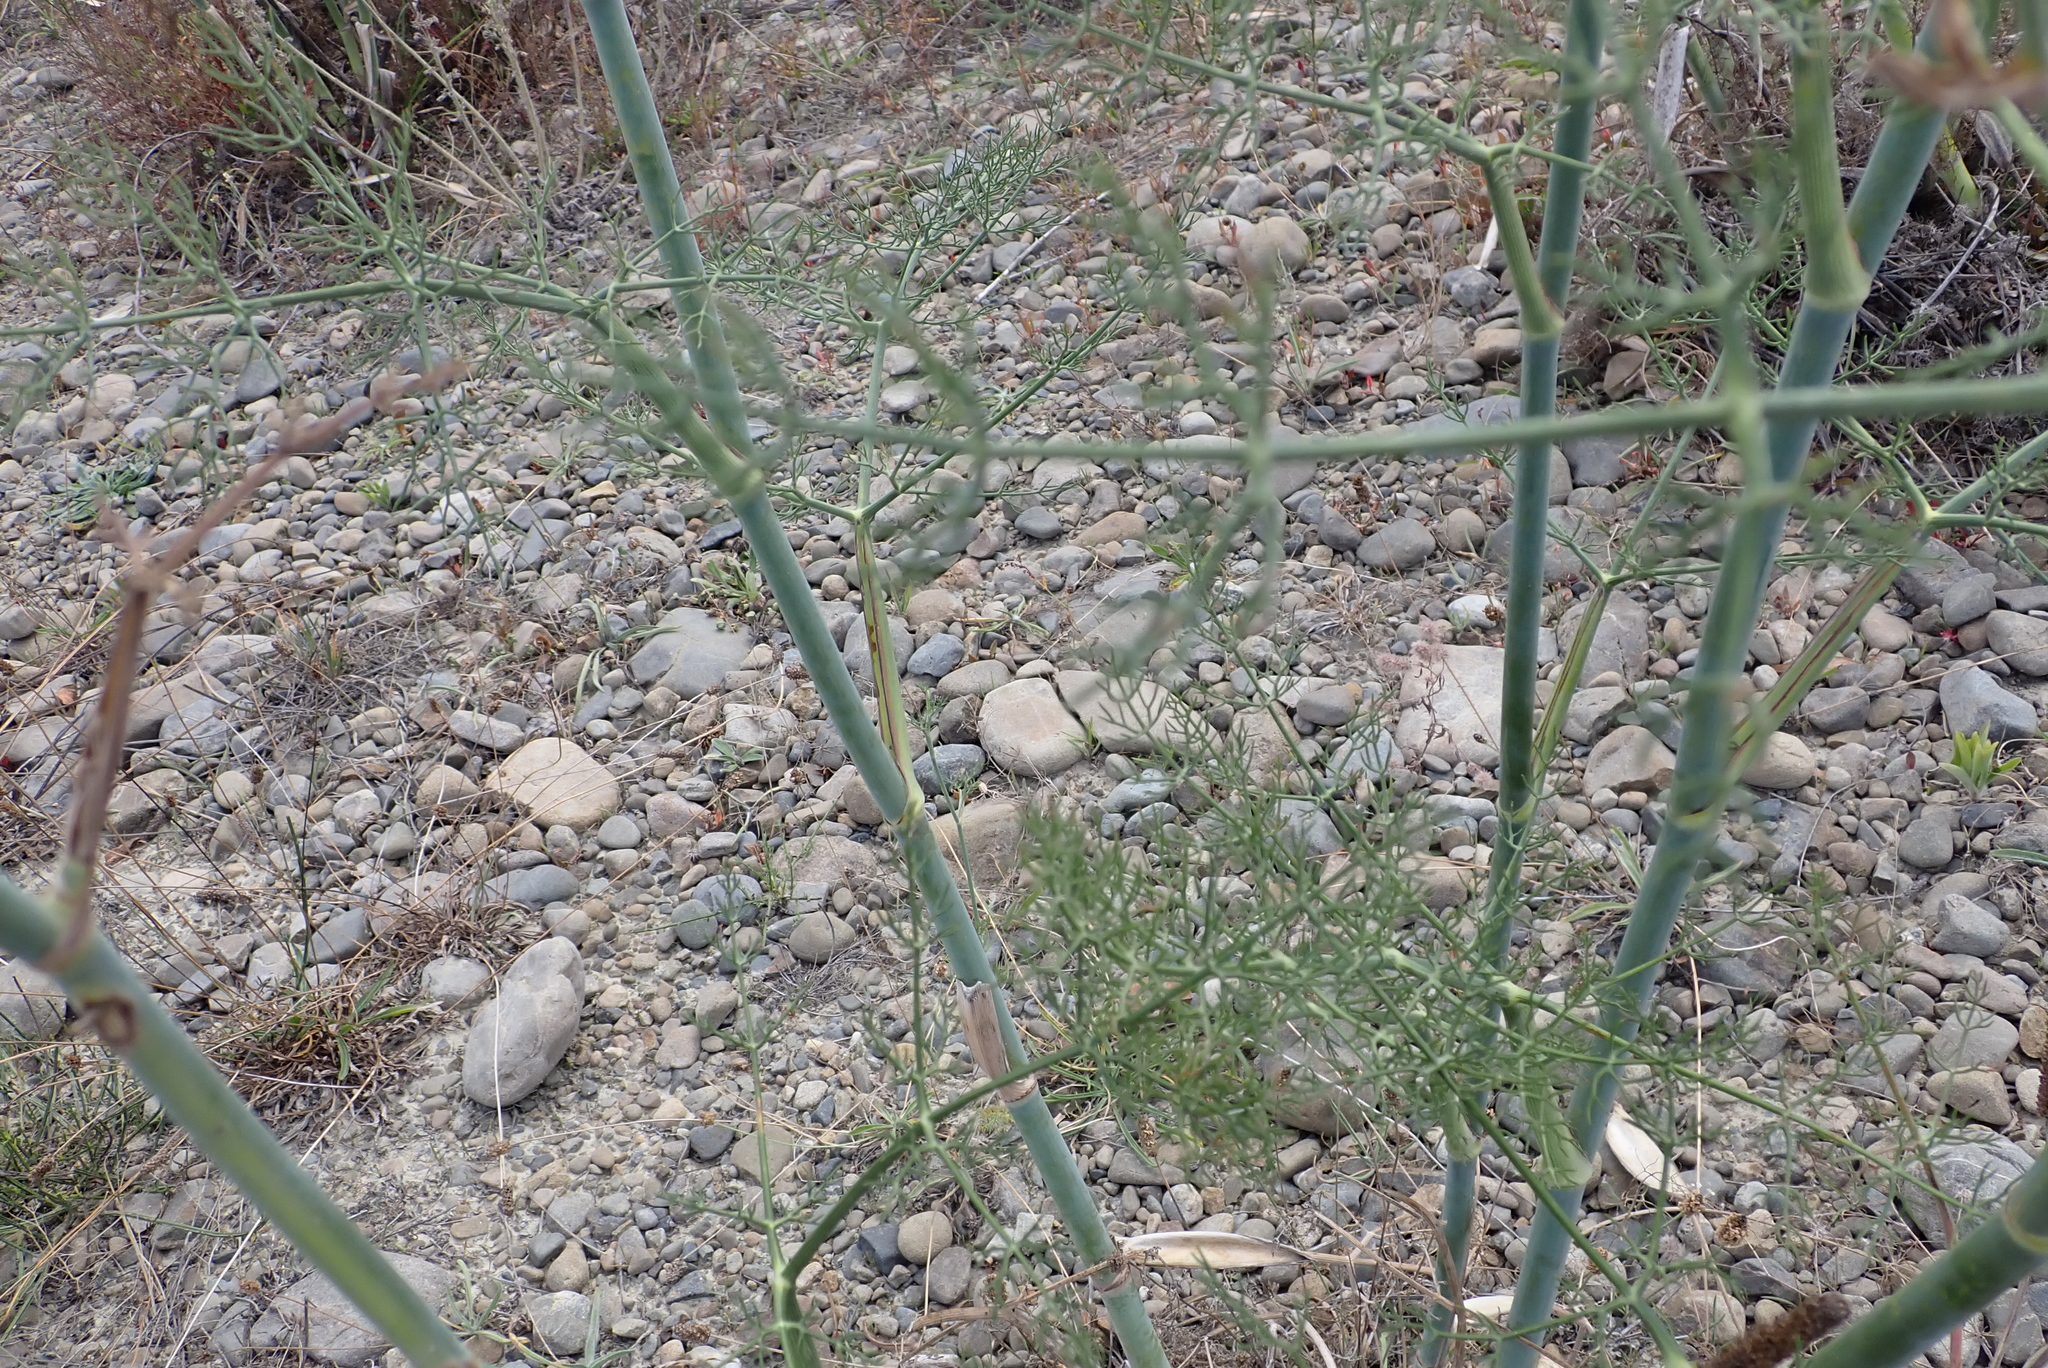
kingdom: Plantae
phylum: Tracheophyta
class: Magnoliopsida
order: Apiales
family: Apiaceae
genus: Foeniculum
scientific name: Foeniculum vulgare
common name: Fennel
